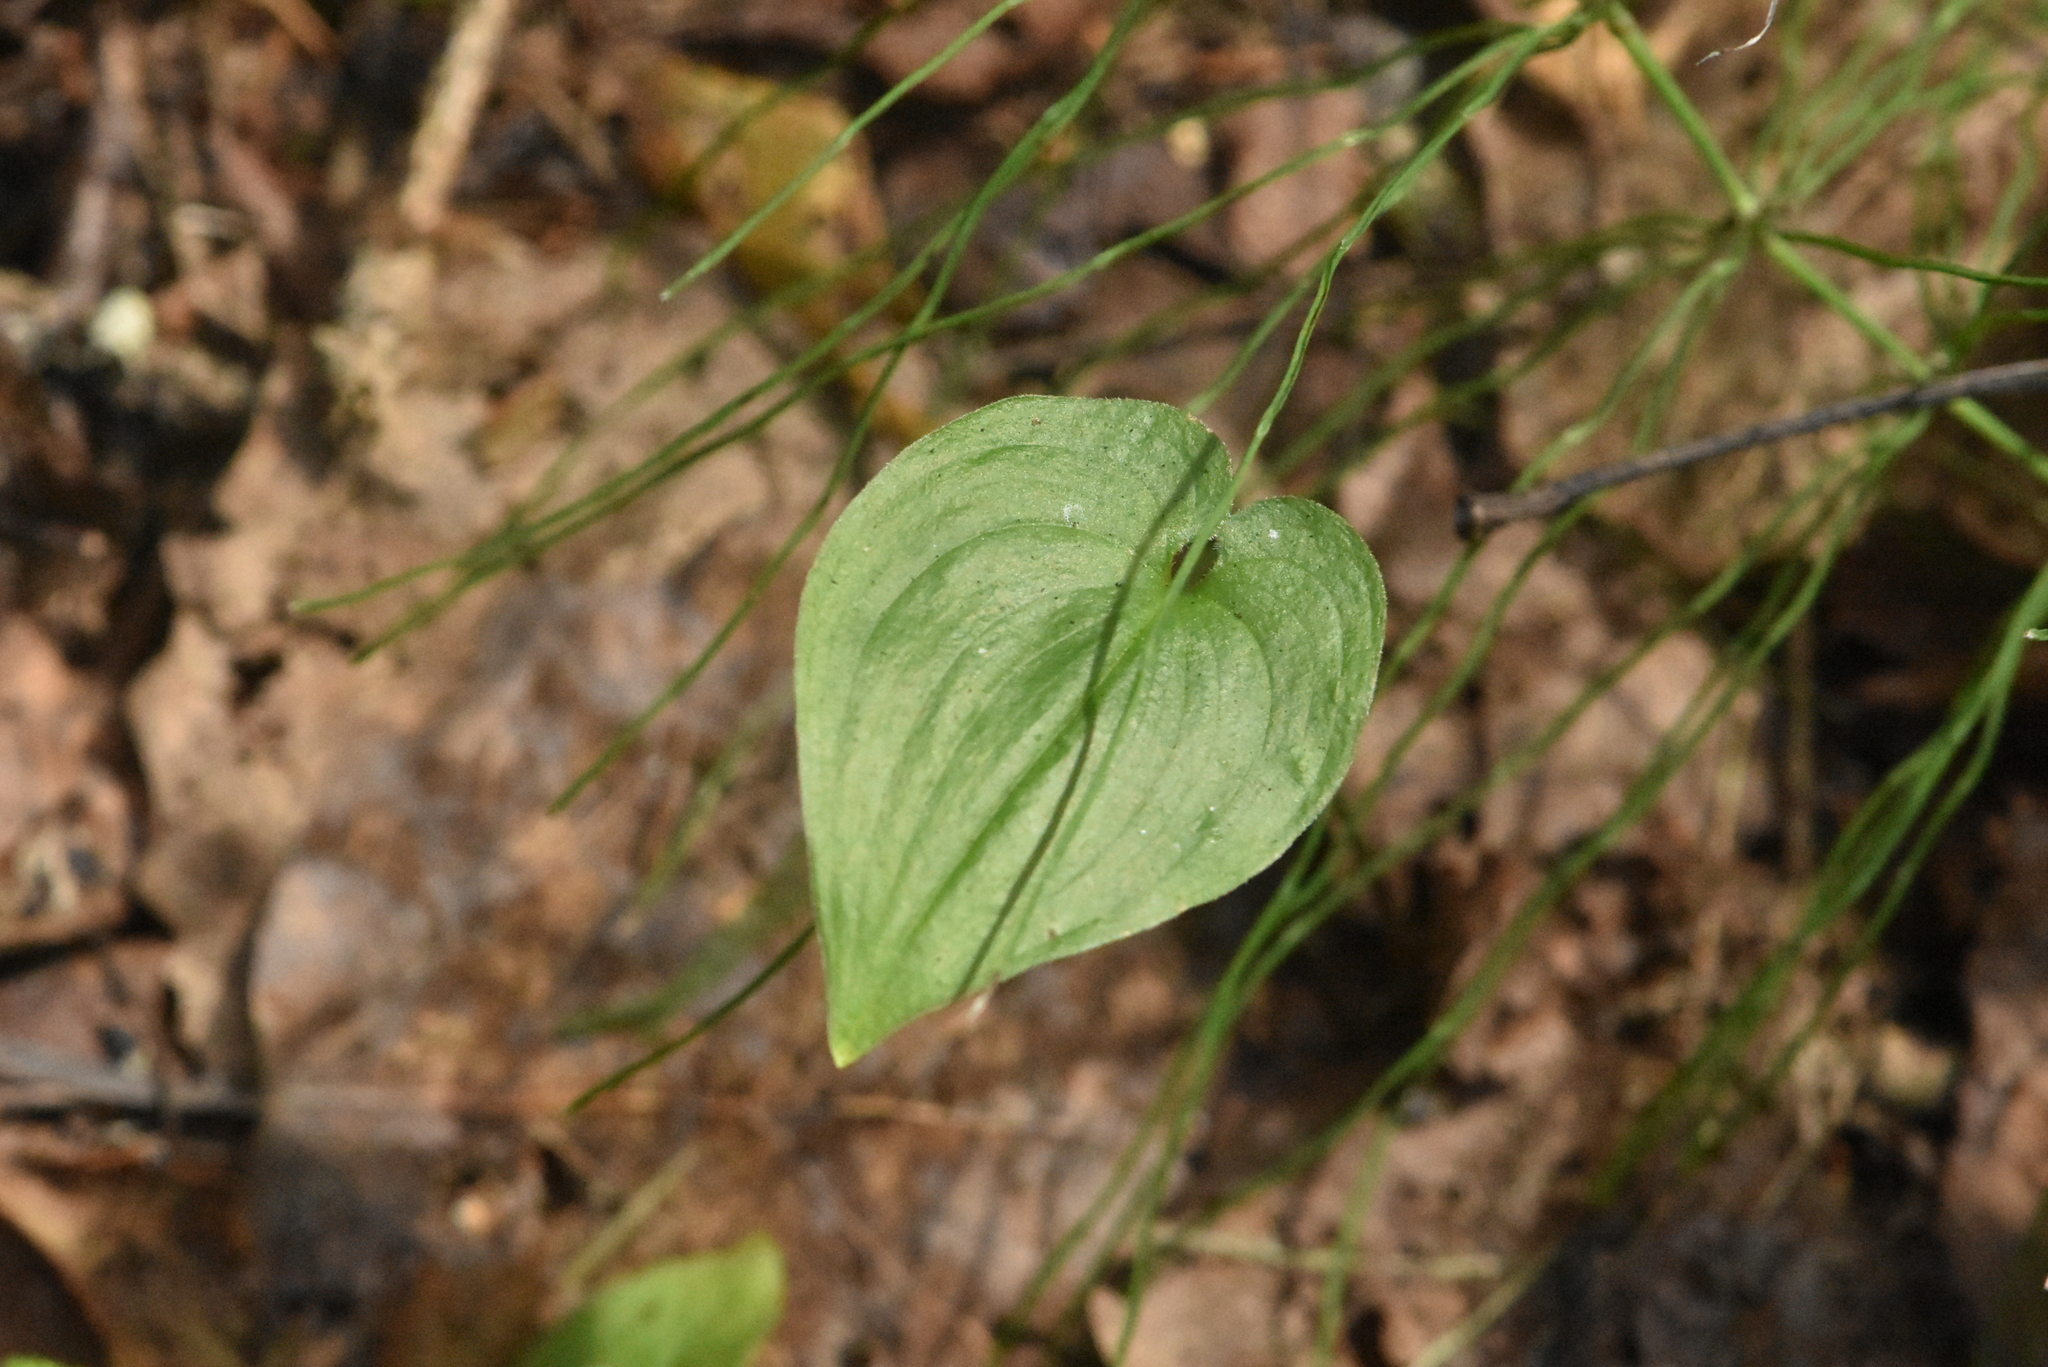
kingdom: Plantae
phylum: Tracheophyta
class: Liliopsida
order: Asparagales
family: Asparagaceae
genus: Maianthemum
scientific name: Maianthemum bifolium
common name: May lily
